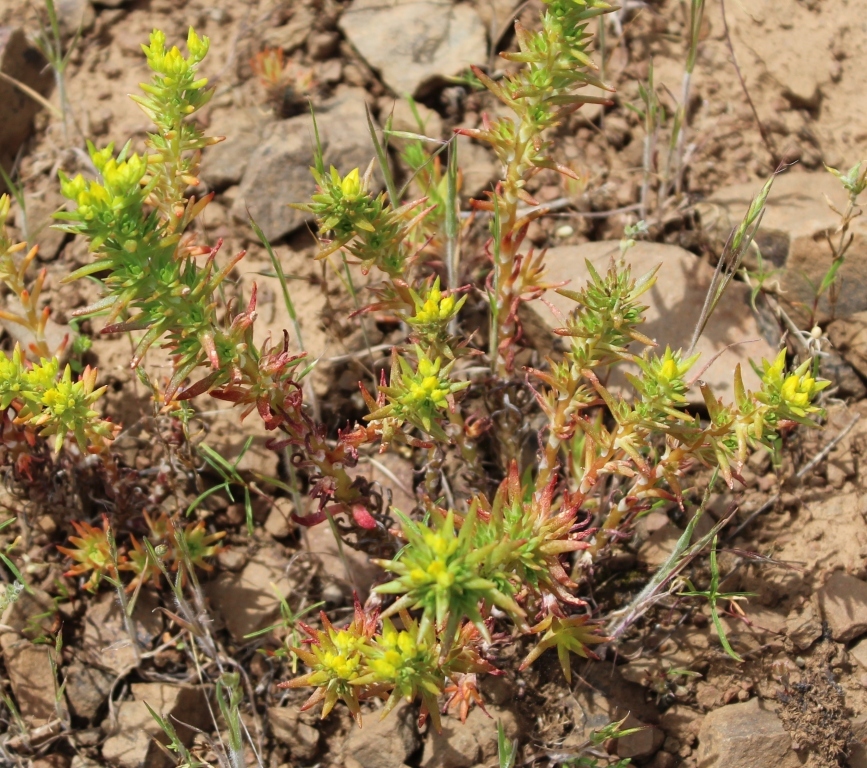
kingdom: Plantae
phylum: Tracheophyta
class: Magnoliopsida
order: Saxifragales
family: Crassulaceae
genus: Sedum
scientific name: Sedum stenopetalum
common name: Narrow-petaled stonecrop
